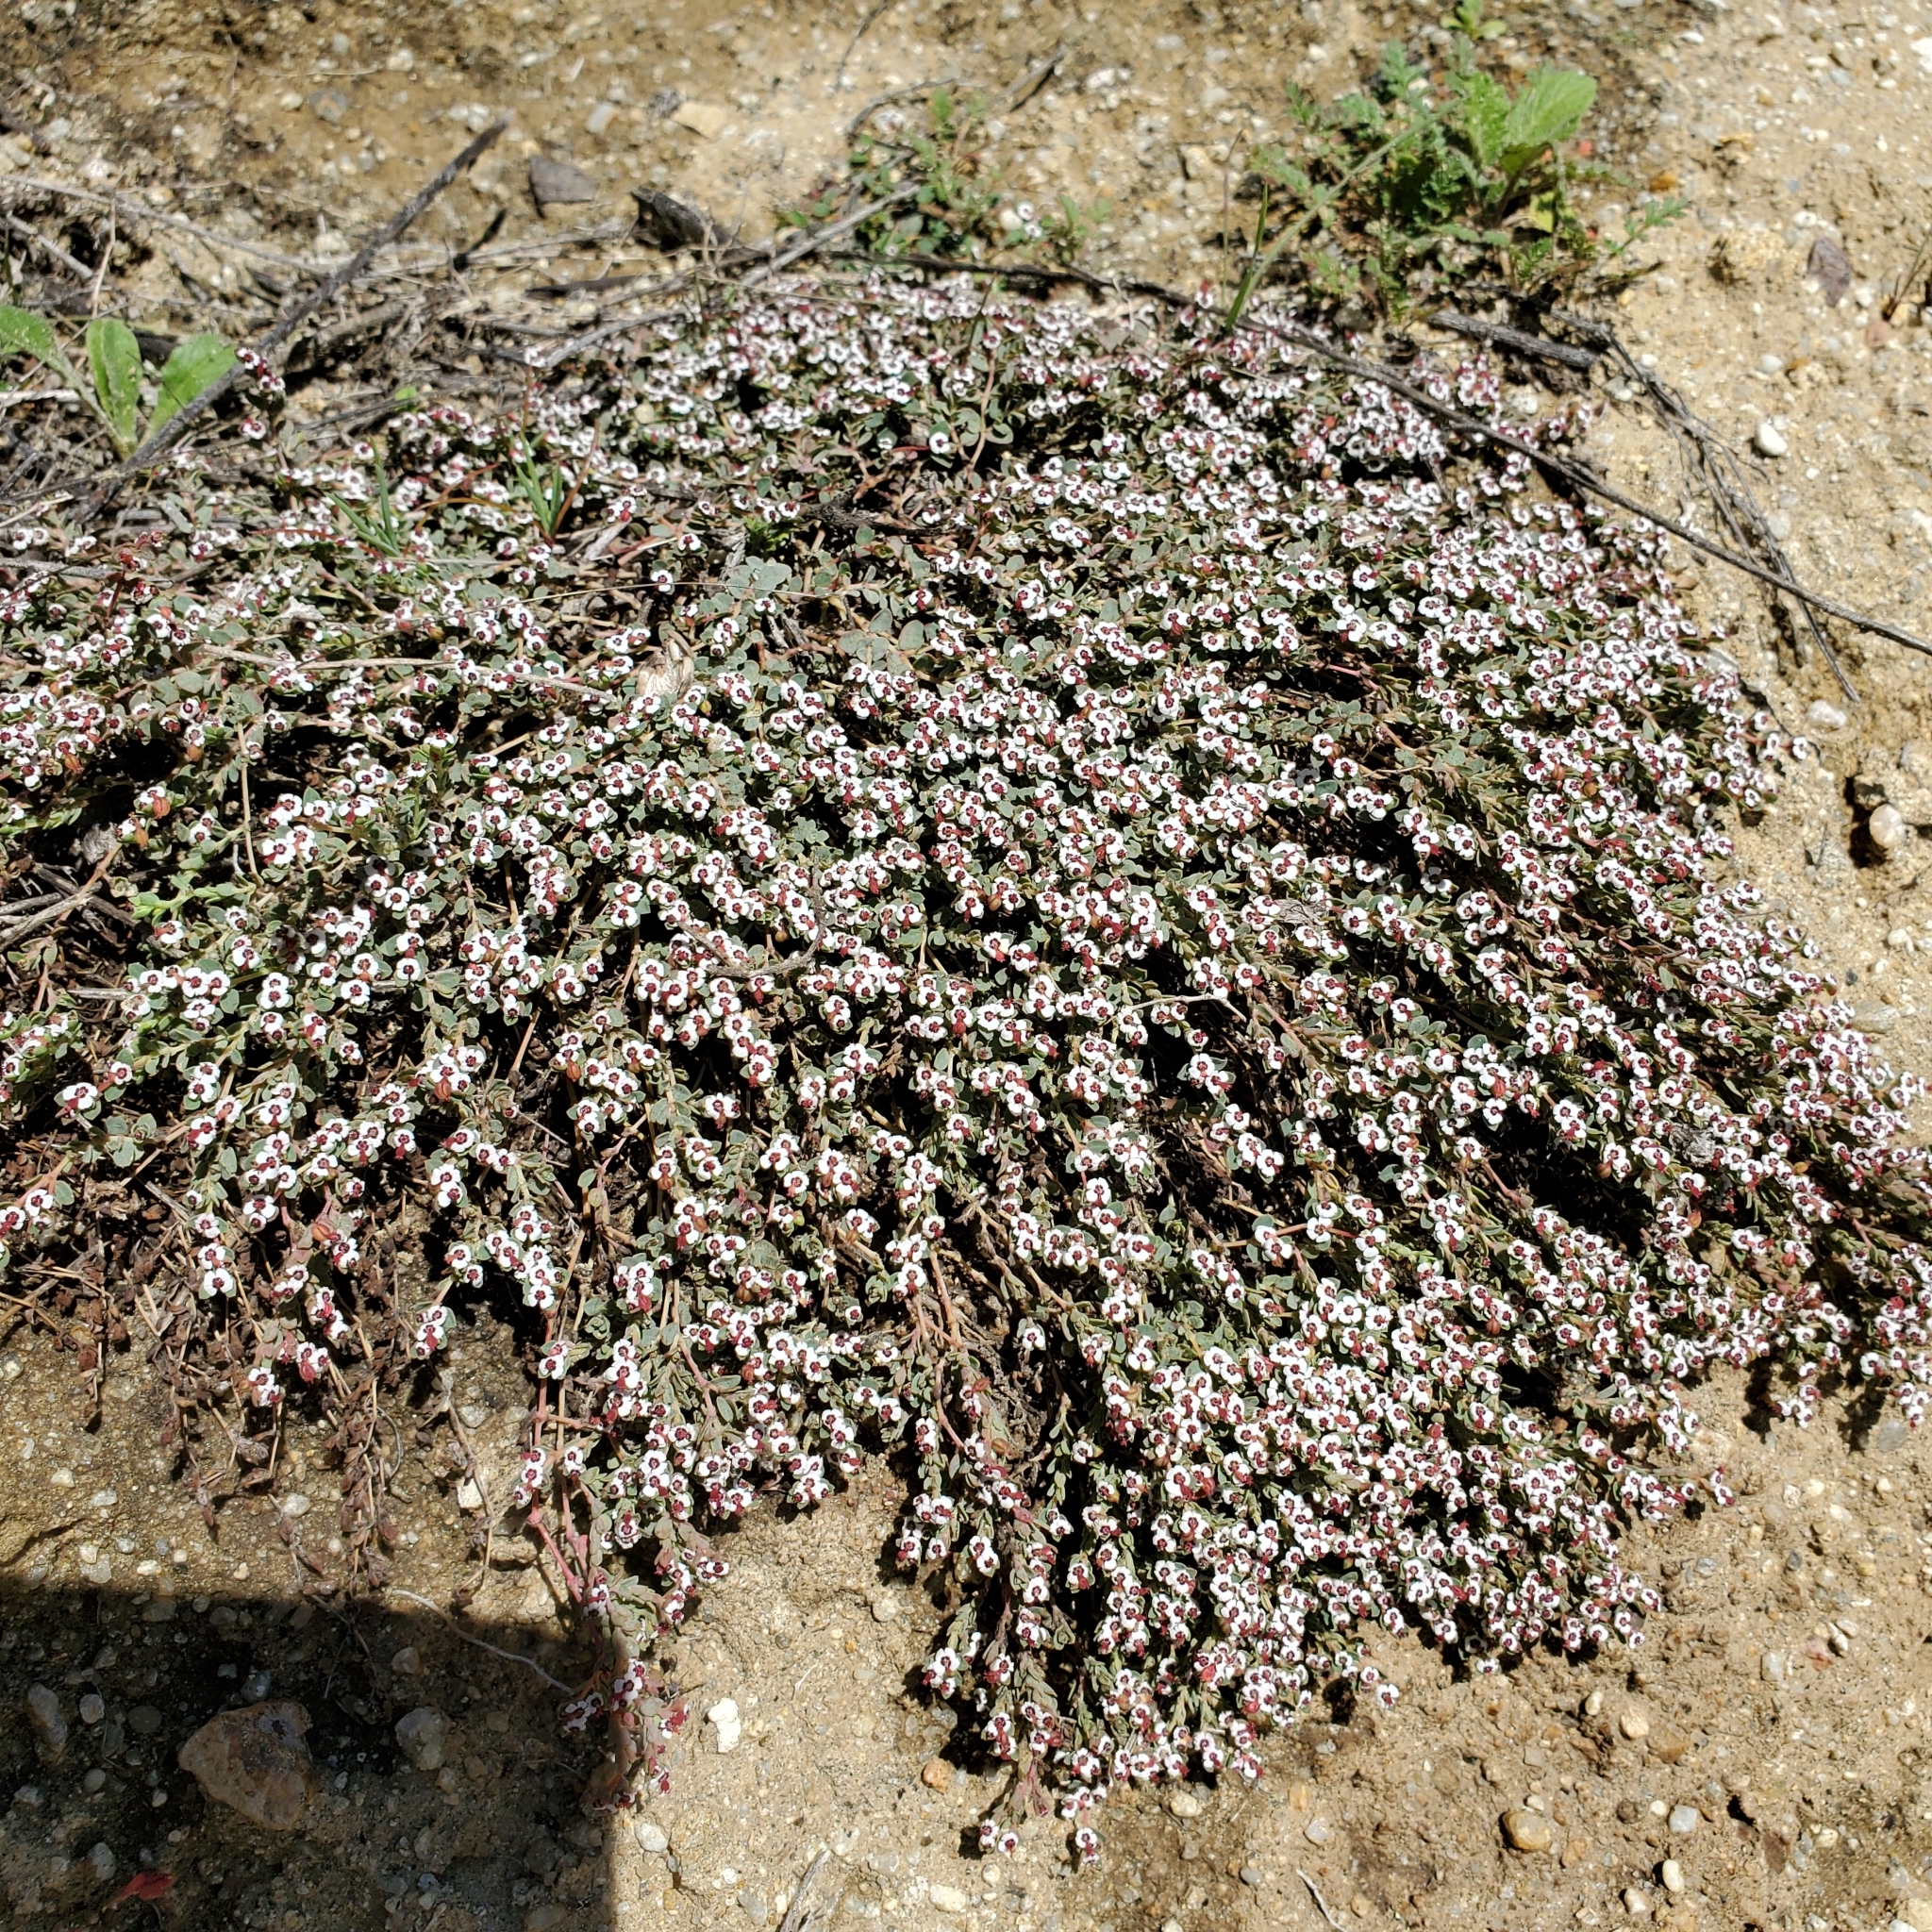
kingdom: Plantae
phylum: Tracheophyta
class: Magnoliopsida
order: Malpighiales
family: Euphorbiaceae
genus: Euphorbia
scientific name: Euphorbia polycarpa
